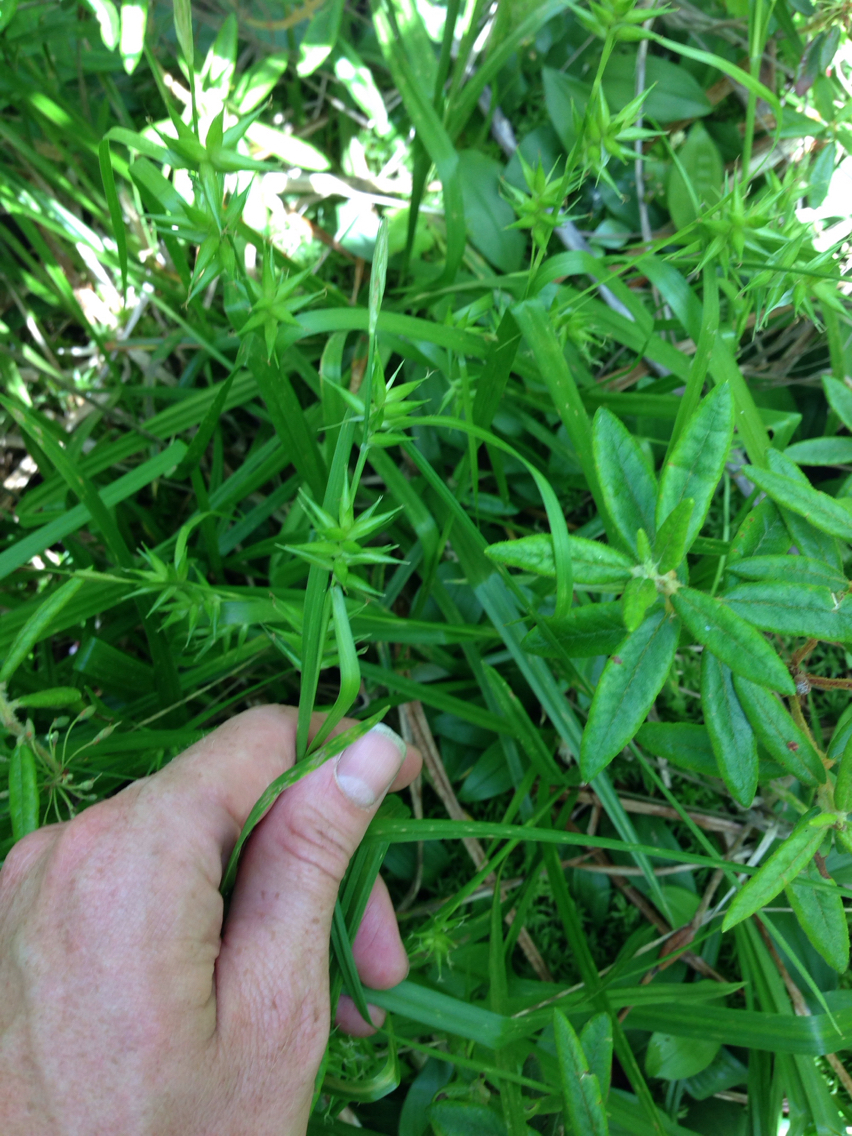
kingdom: Plantae
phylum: Tracheophyta
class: Liliopsida
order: Poales
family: Cyperaceae
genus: Carex
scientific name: Carex folliculata
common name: Northern long sedge
